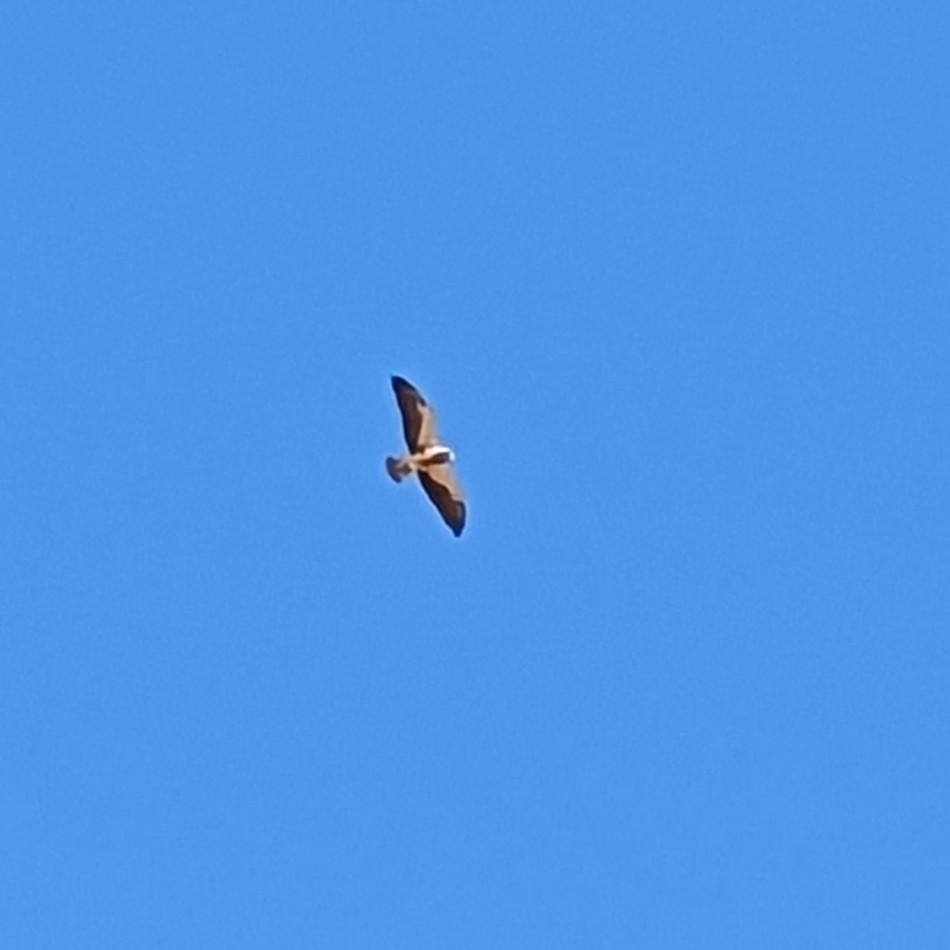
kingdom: Animalia
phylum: Chordata
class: Aves
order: Accipitriformes
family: Accipitridae
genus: Buteo
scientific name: Buteo swainsoni
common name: Swainson's hawk
